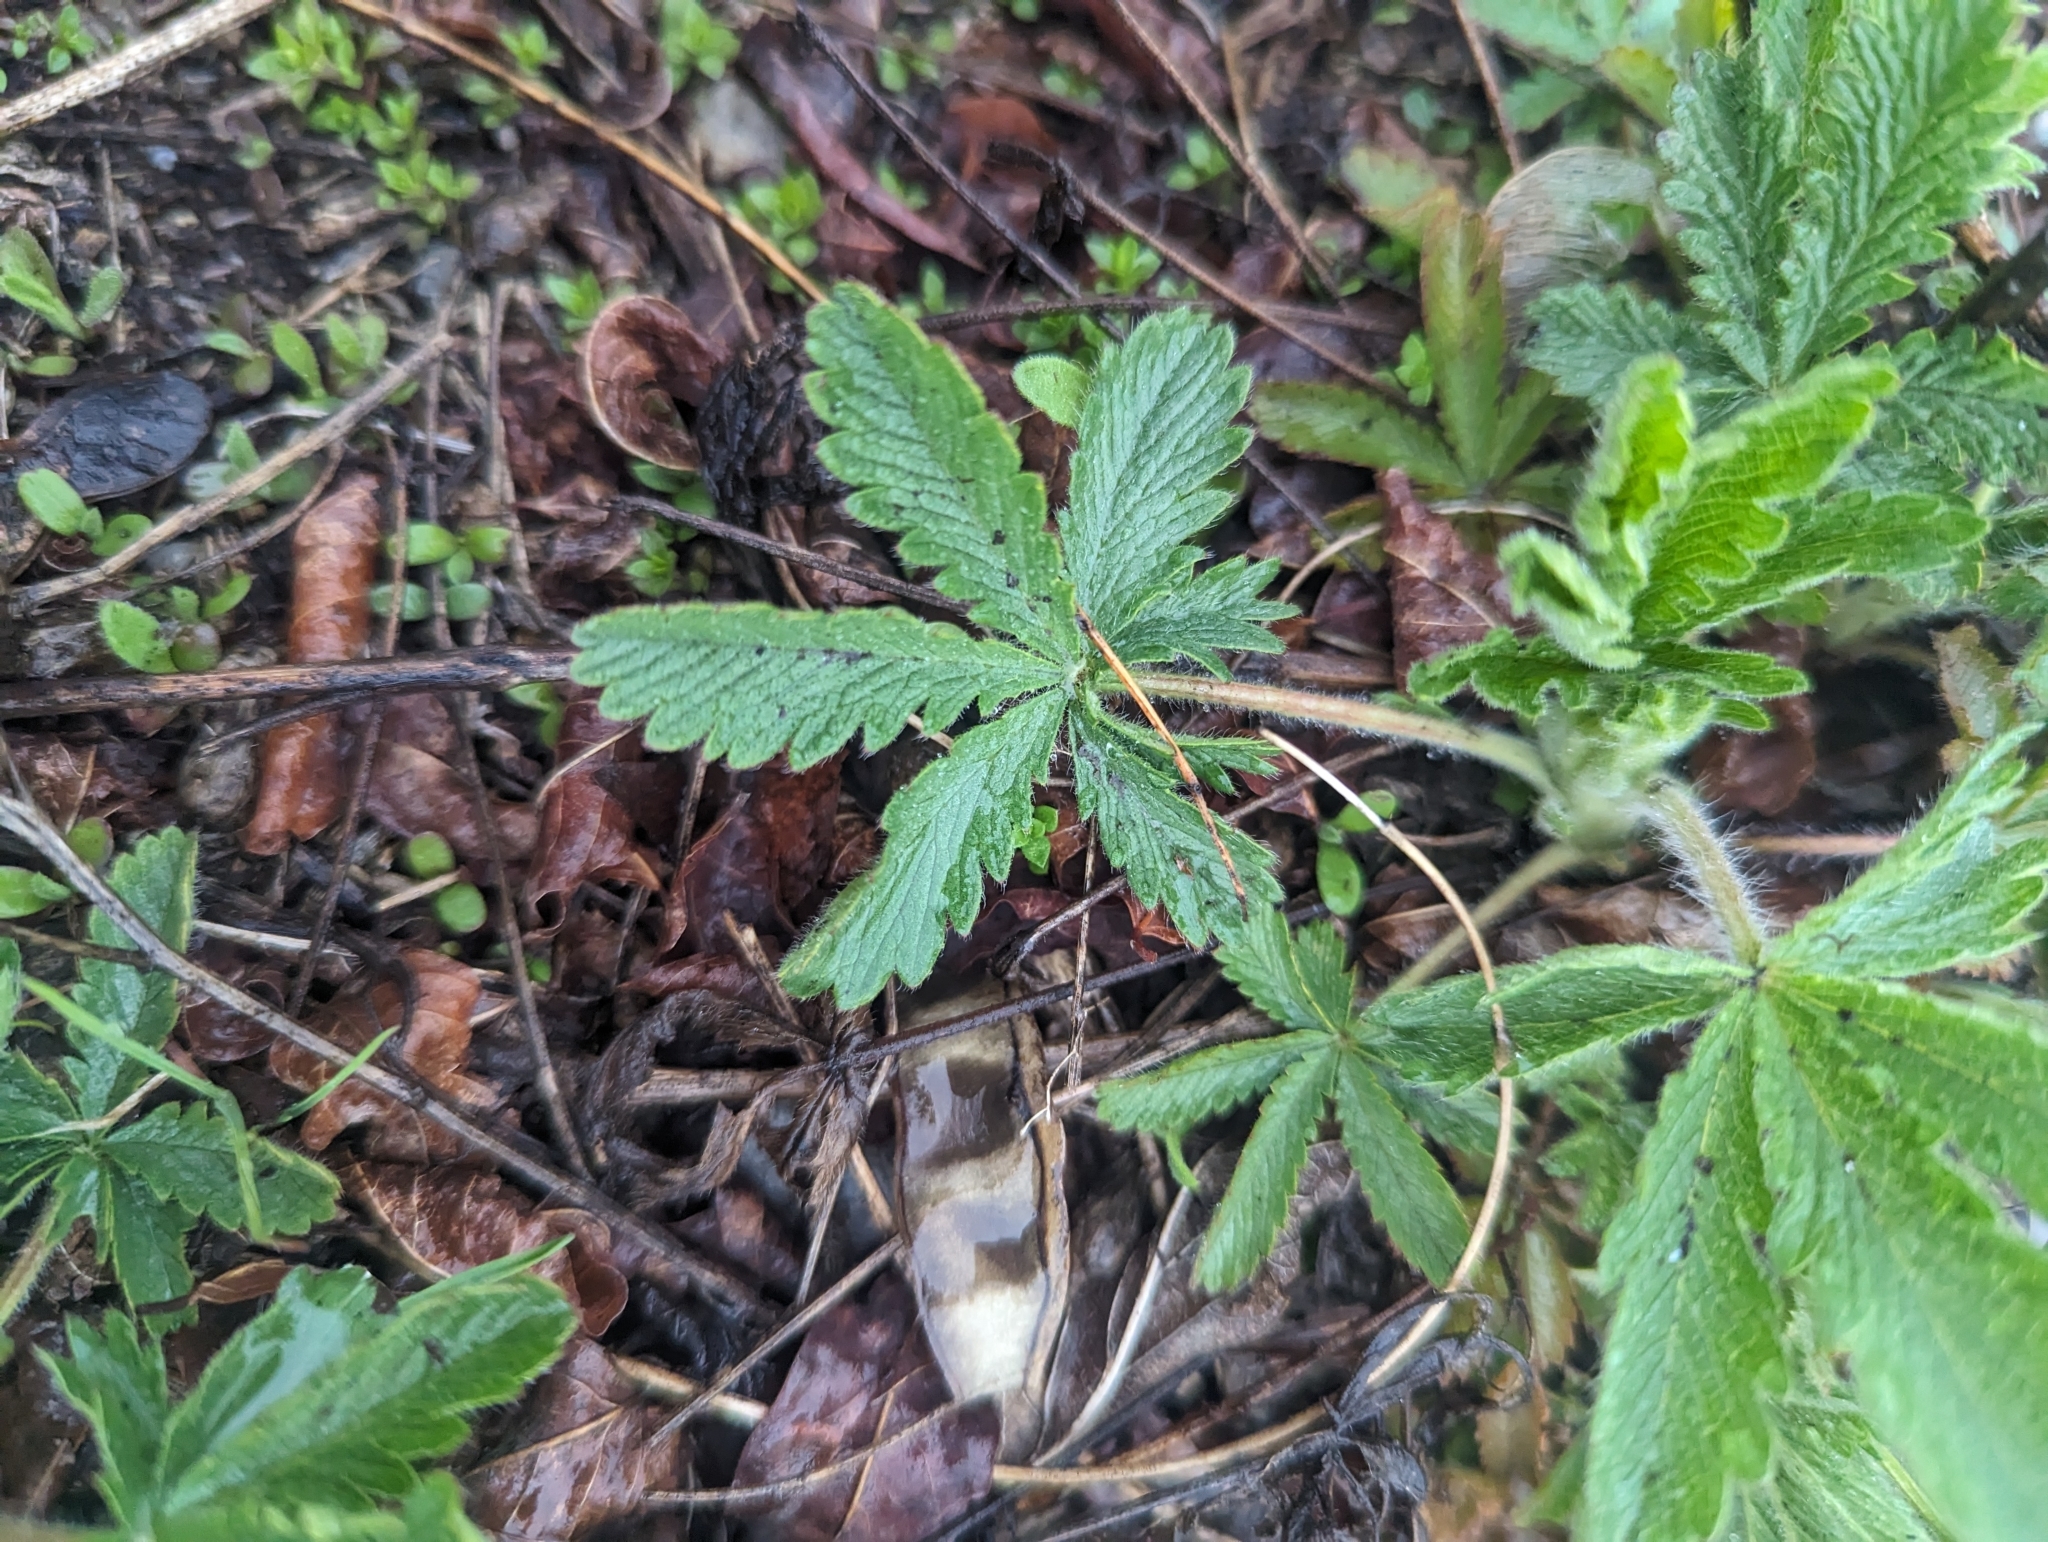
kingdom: Plantae
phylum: Tracheophyta
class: Magnoliopsida
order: Rosales
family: Rosaceae
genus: Potentilla
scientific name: Potentilla recta
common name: Sulphur cinquefoil
